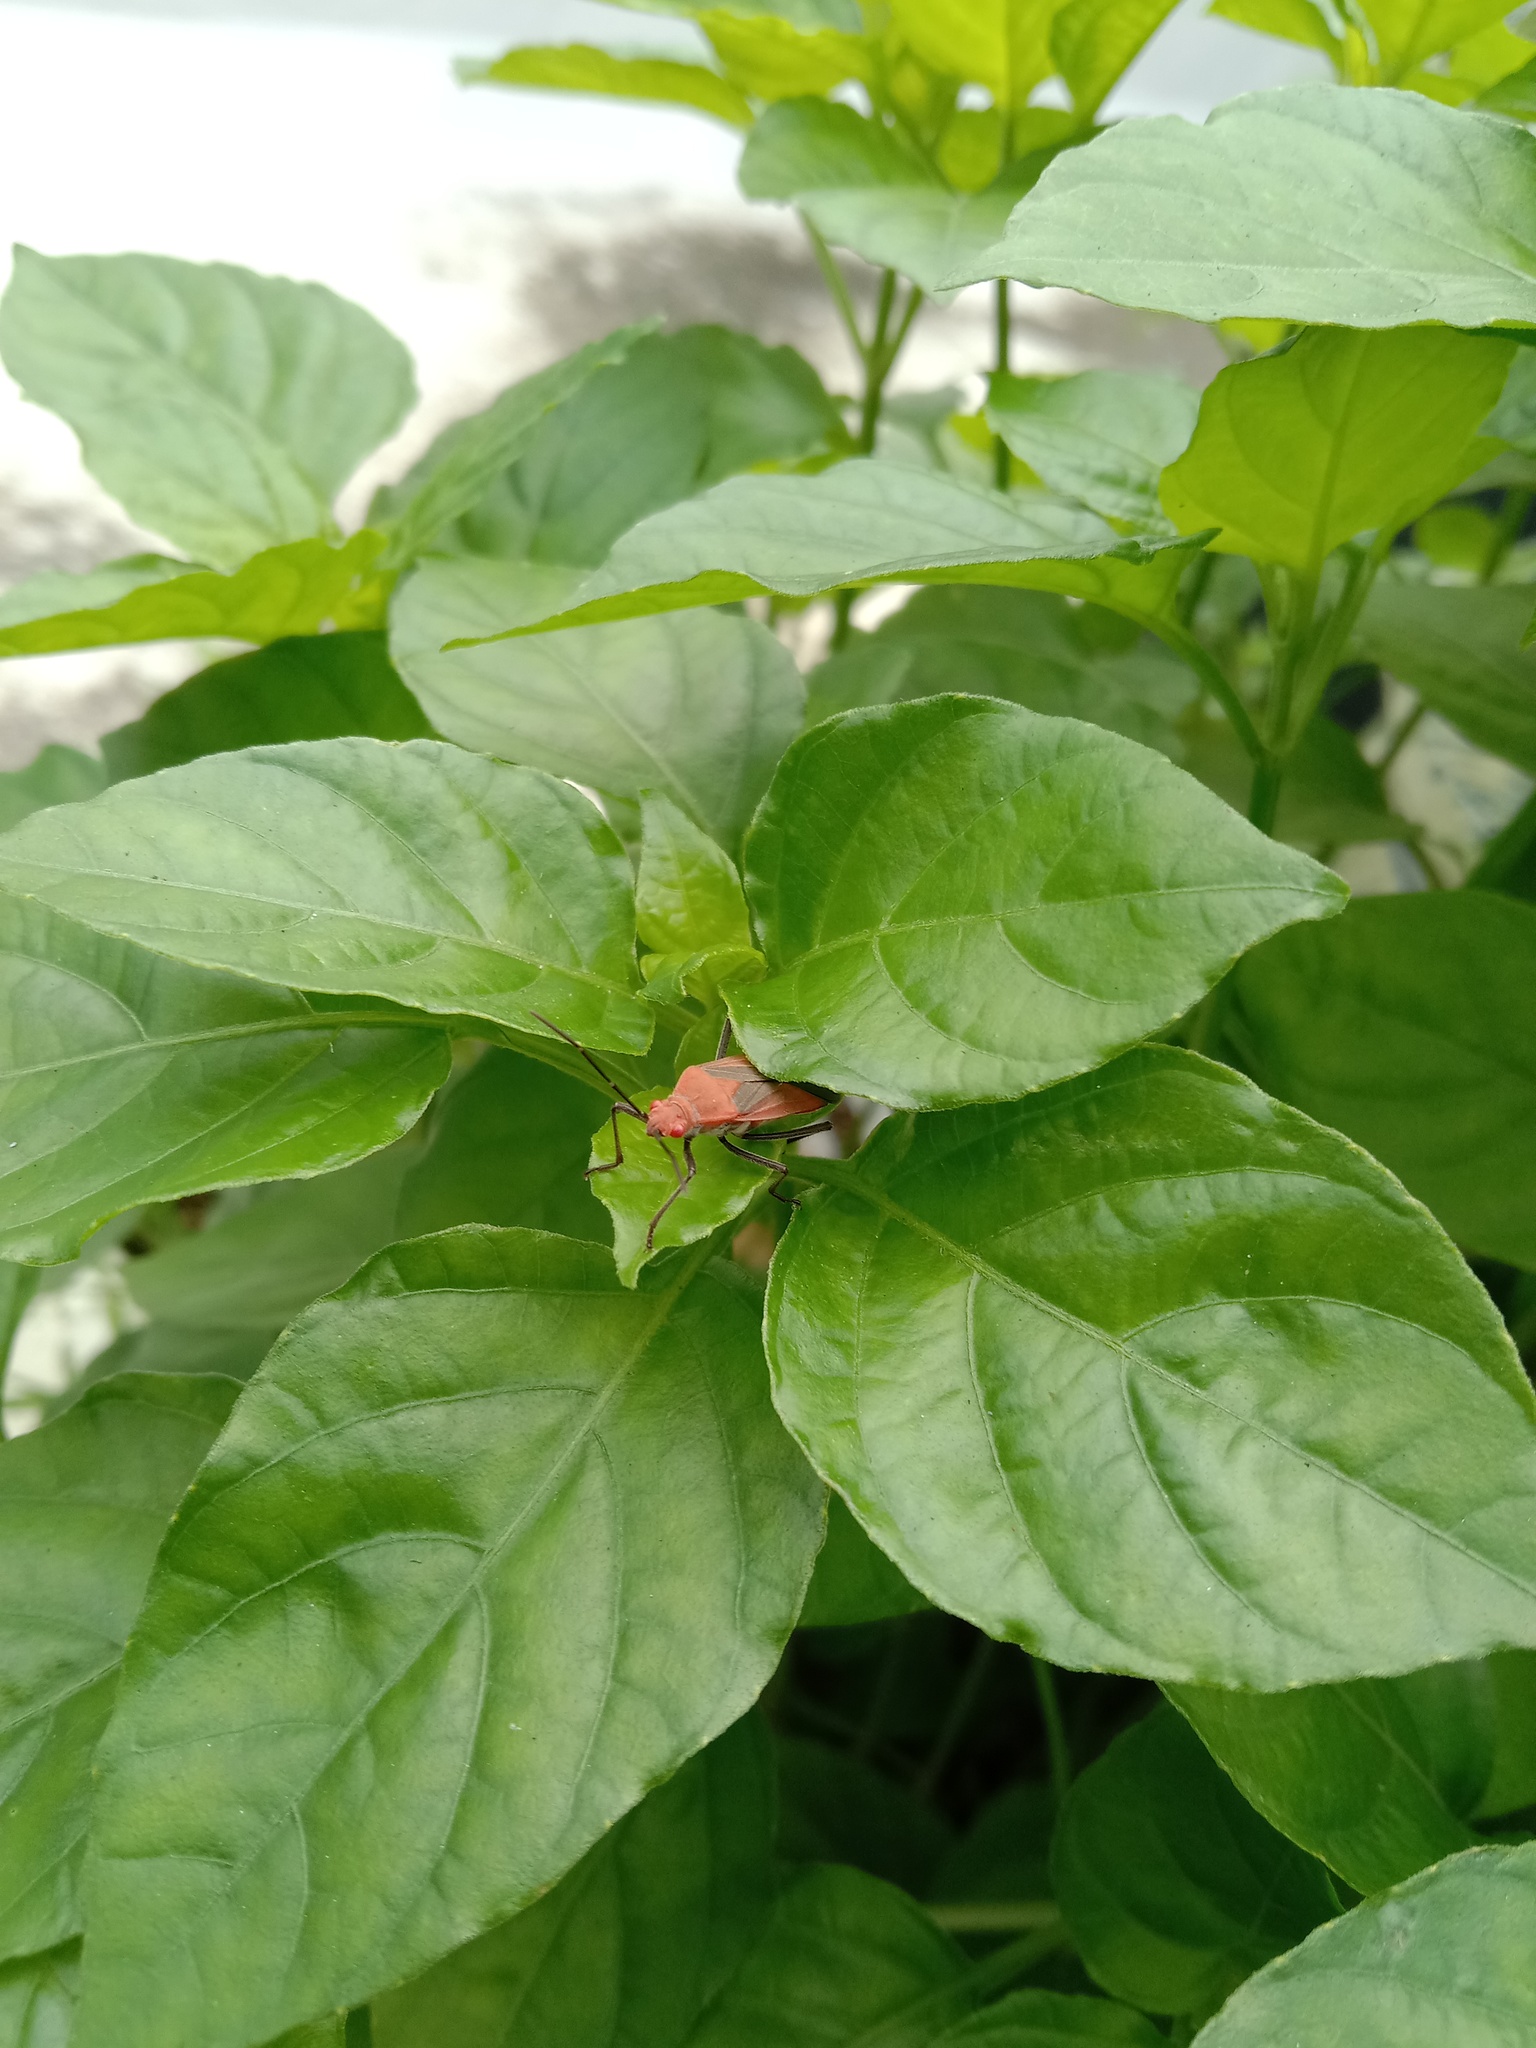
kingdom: Animalia
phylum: Arthropoda
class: Insecta
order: Hemiptera
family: Rhopalidae
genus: Leptocoris
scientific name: Leptocoris vicinus
